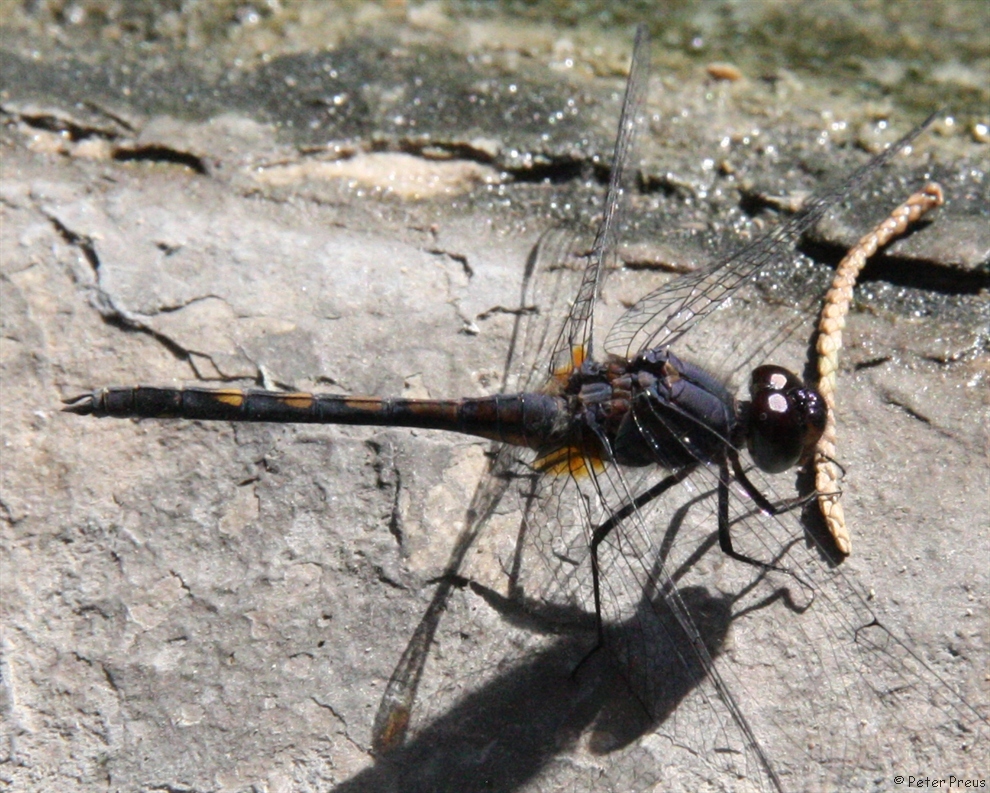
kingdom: Animalia
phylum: Arthropoda
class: Insecta
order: Odonata
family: Libellulidae
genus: Trithemis
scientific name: Trithemis festiva
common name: Indigo dropwing
